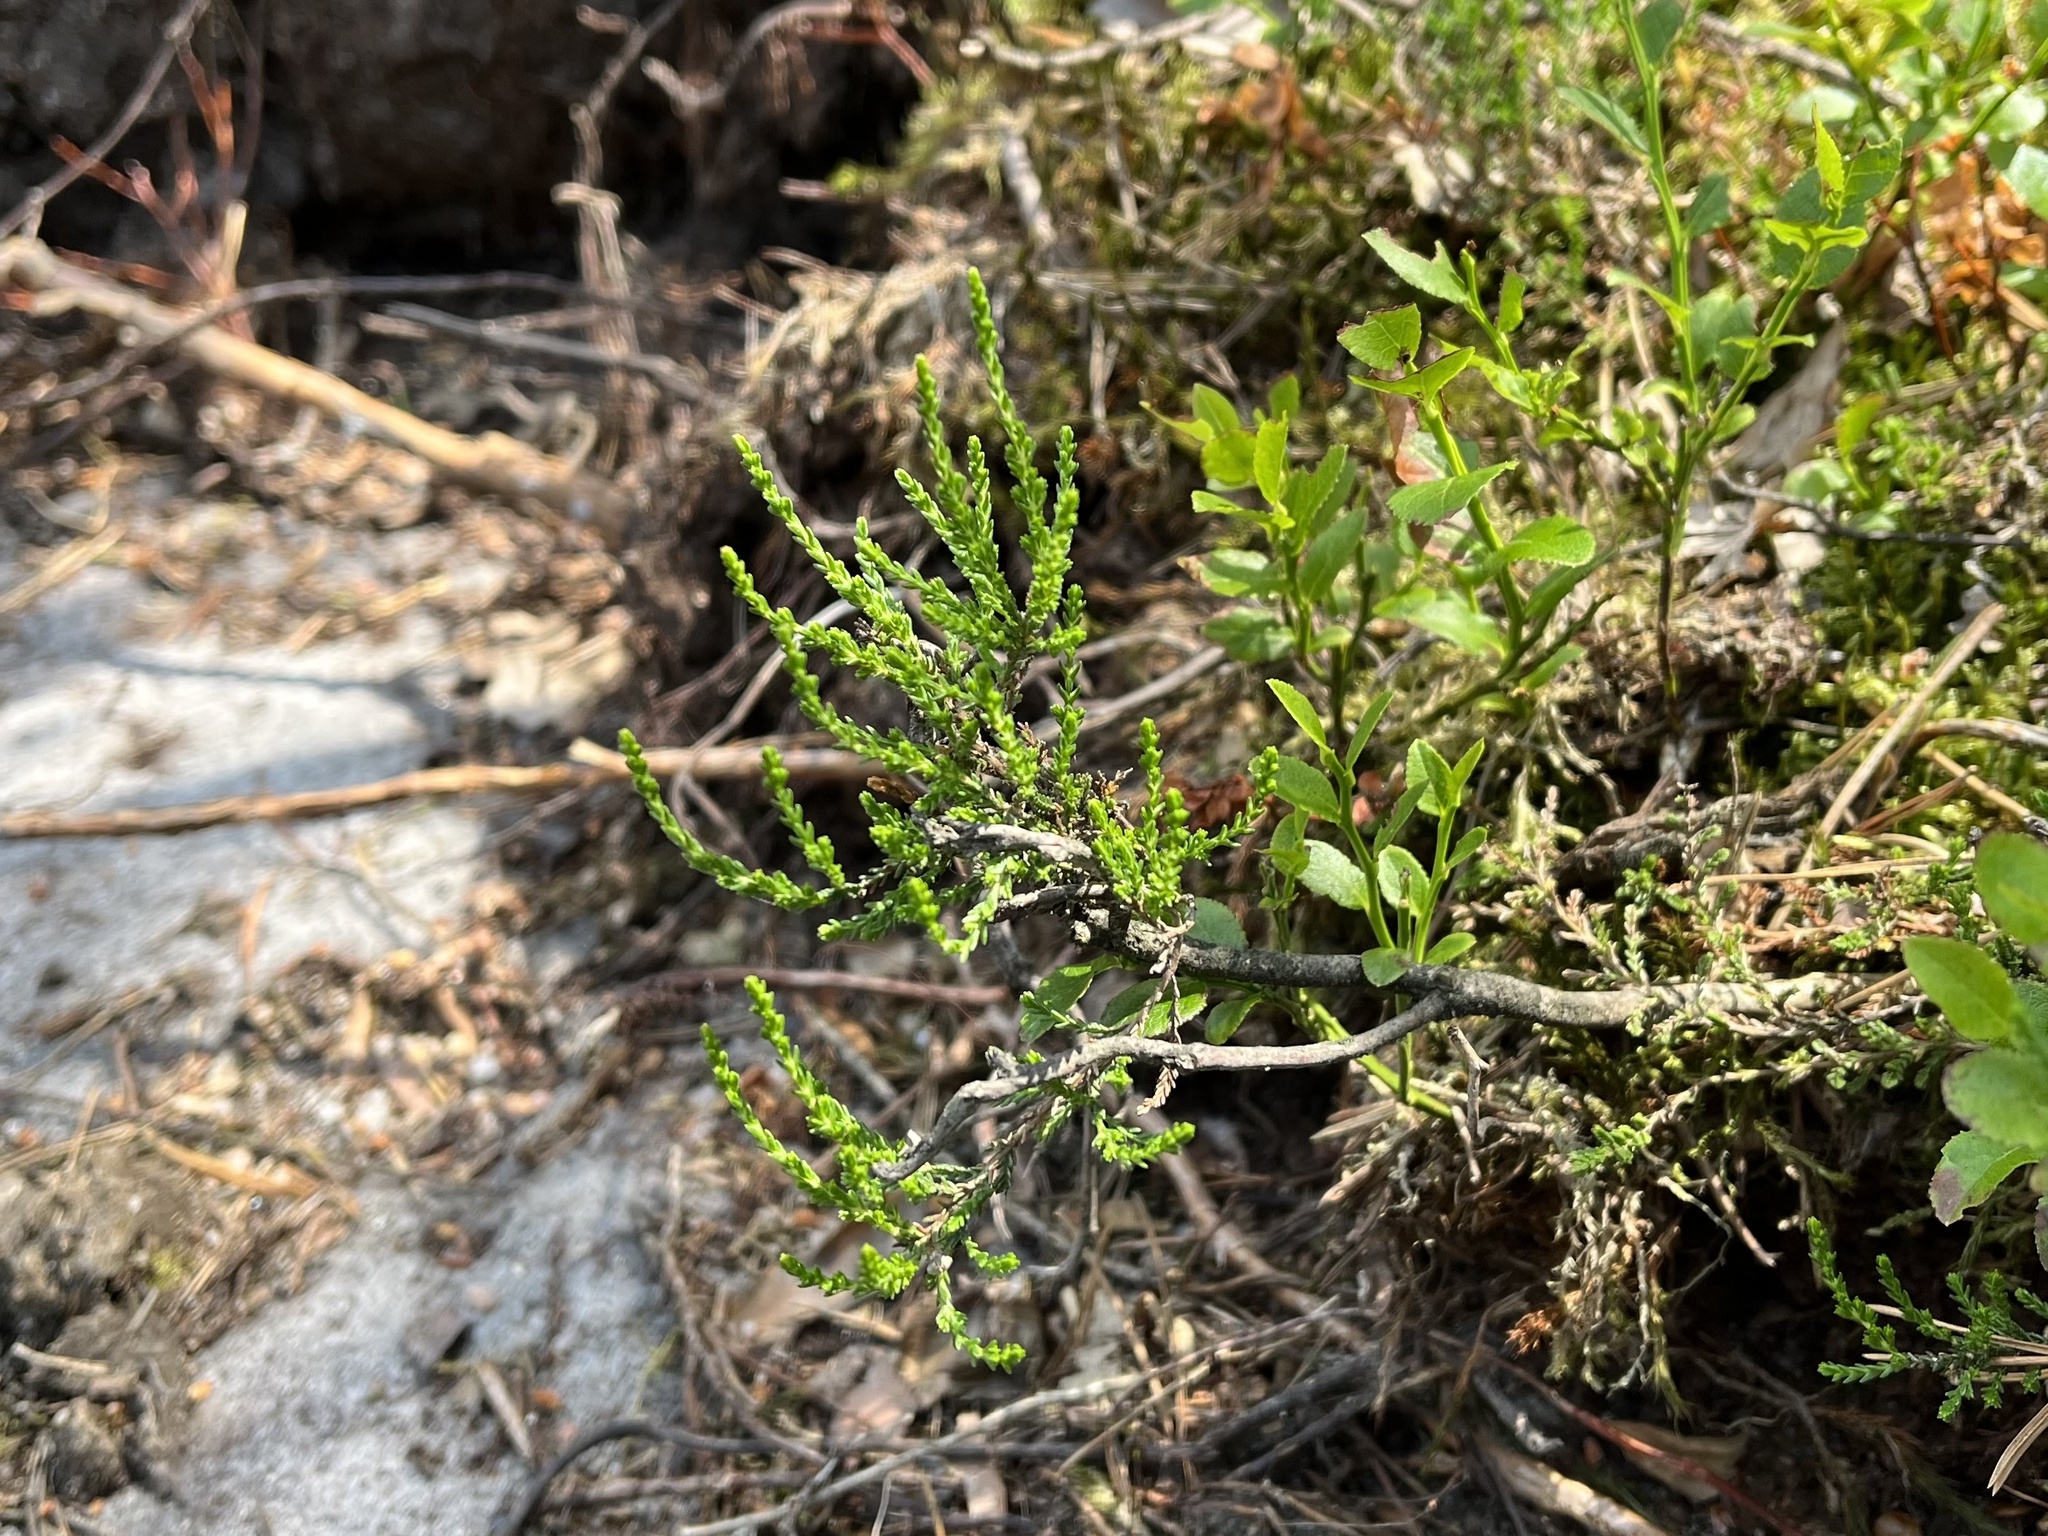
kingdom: Plantae
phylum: Tracheophyta
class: Magnoliopsida
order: Ericales
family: Ericaceae
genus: Calluna
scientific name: Calluna vulgaris
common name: Heather
